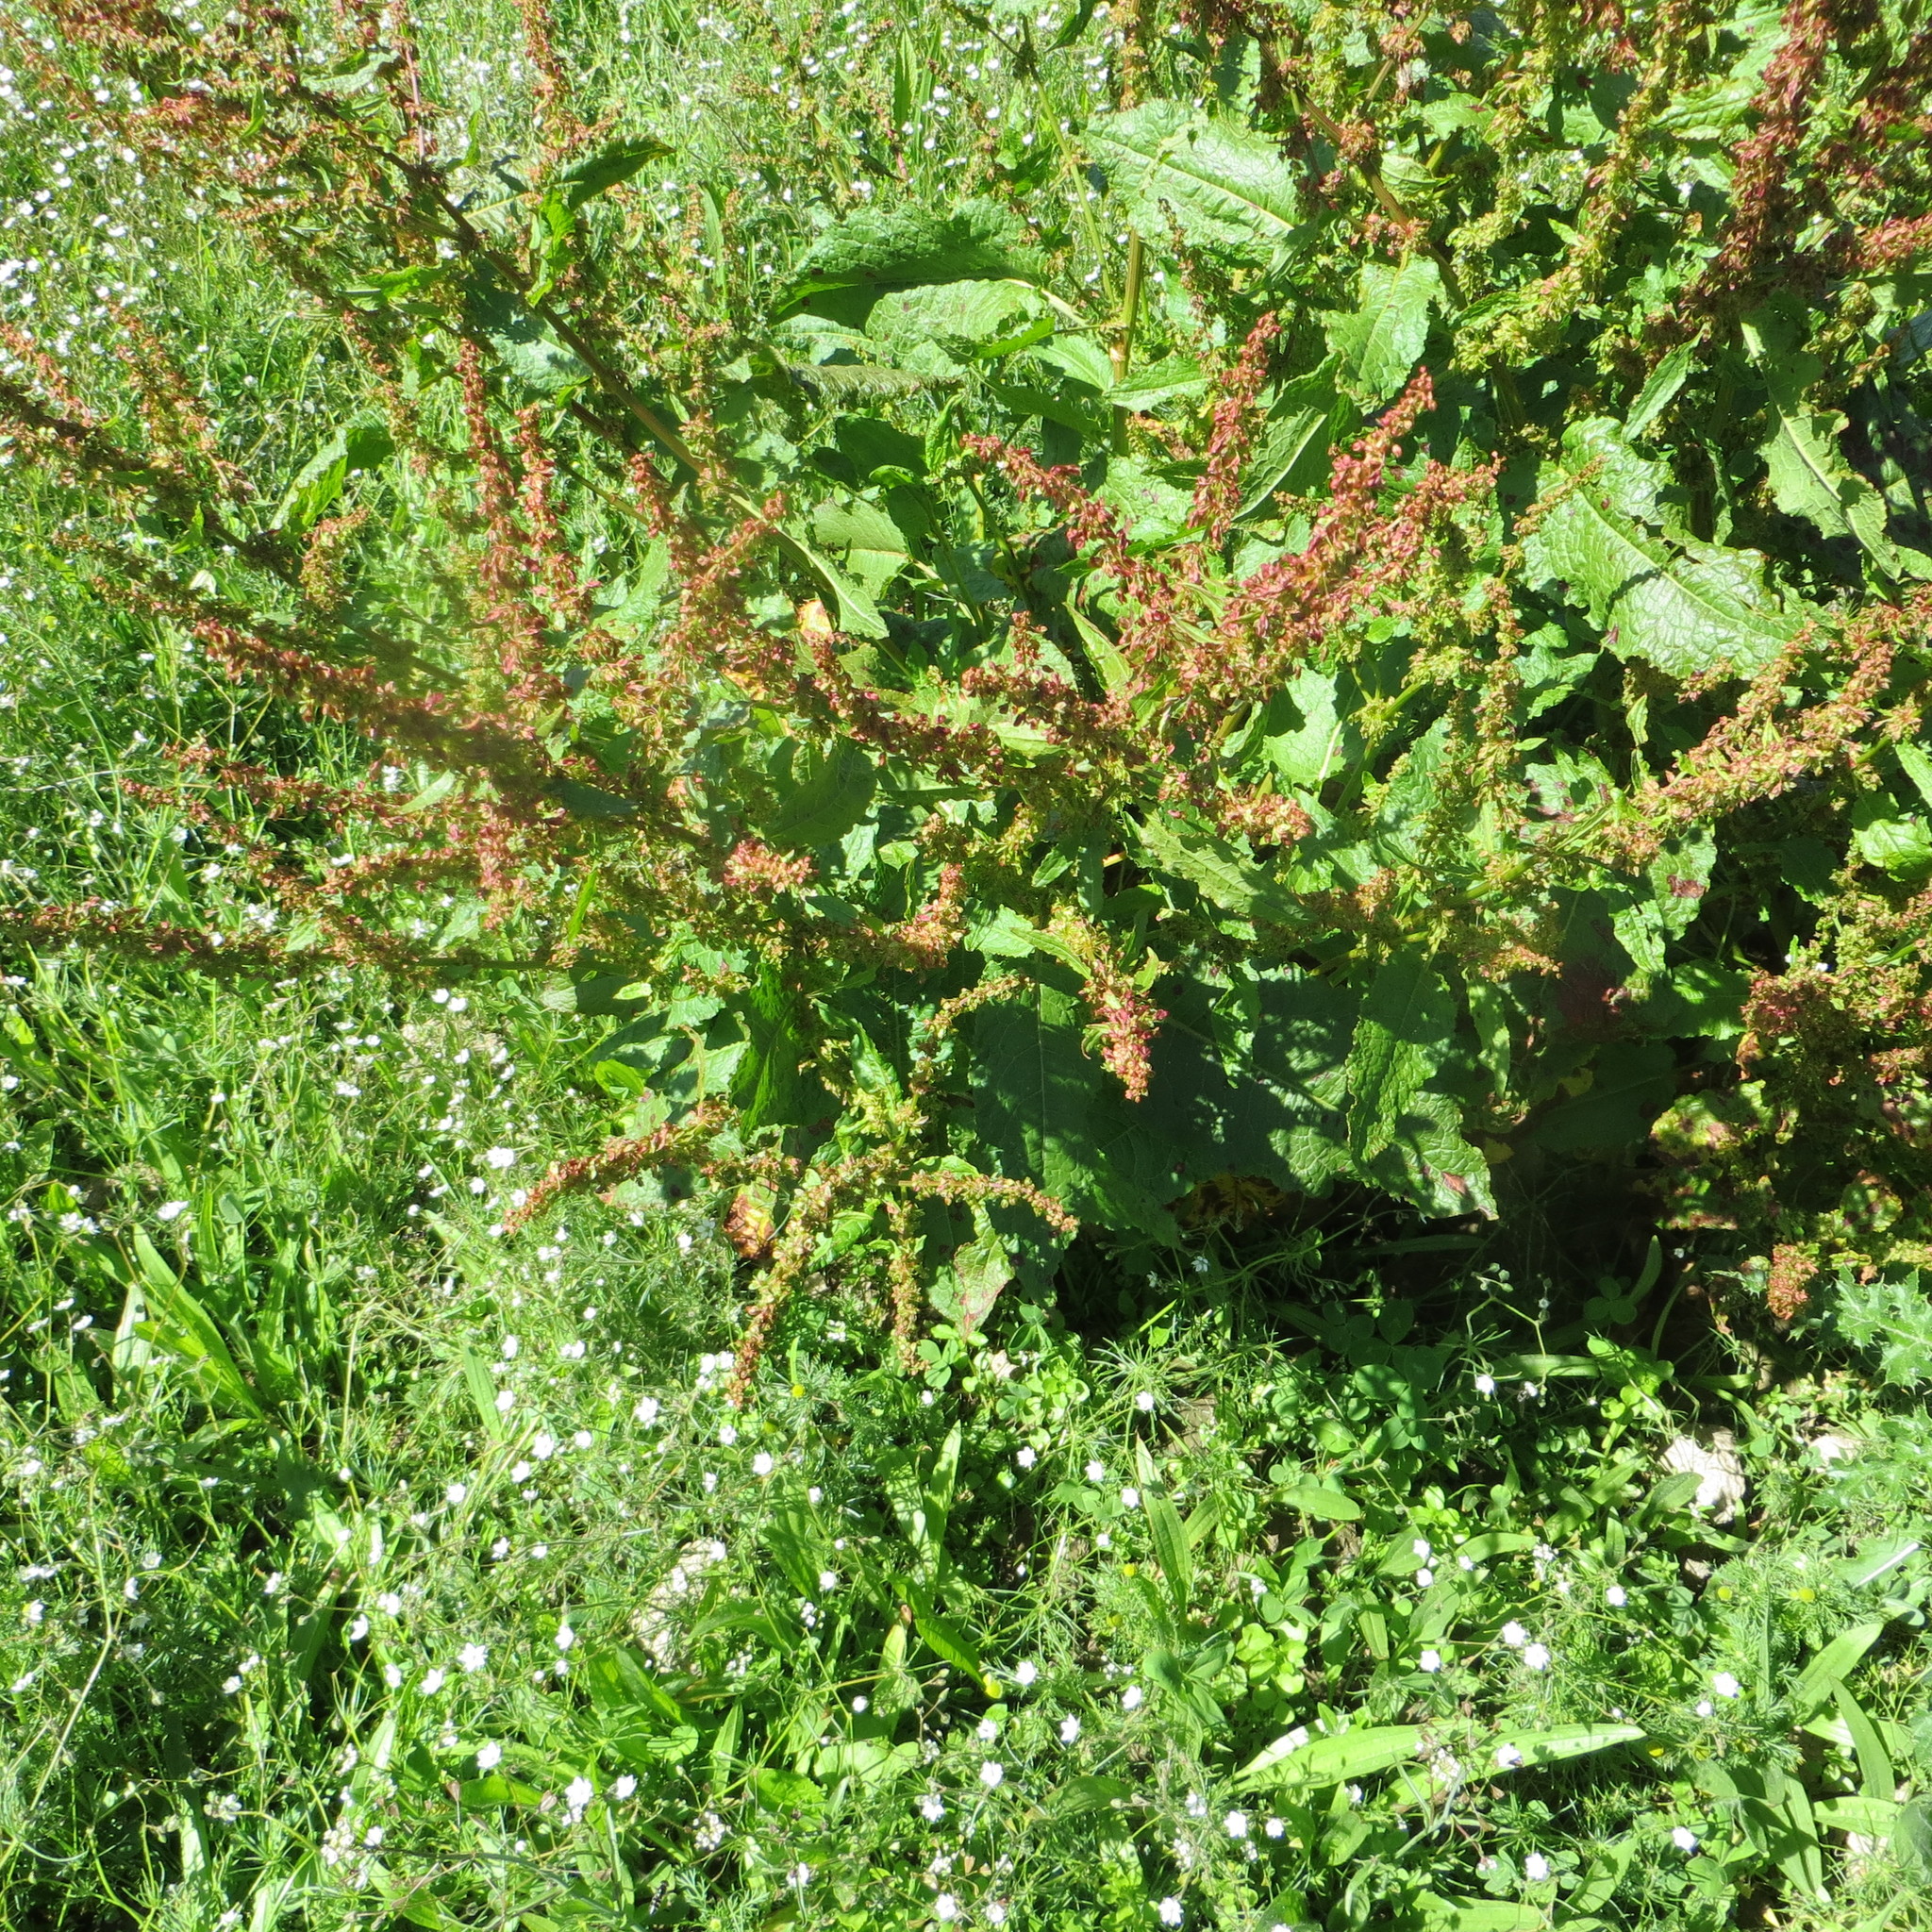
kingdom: Plantae
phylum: Tracheophyta
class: Magnoliopsida
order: Caryophyllales
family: Polygonaceae
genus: Rumex
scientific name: Rumex obtusifolius
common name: Bitter dock
